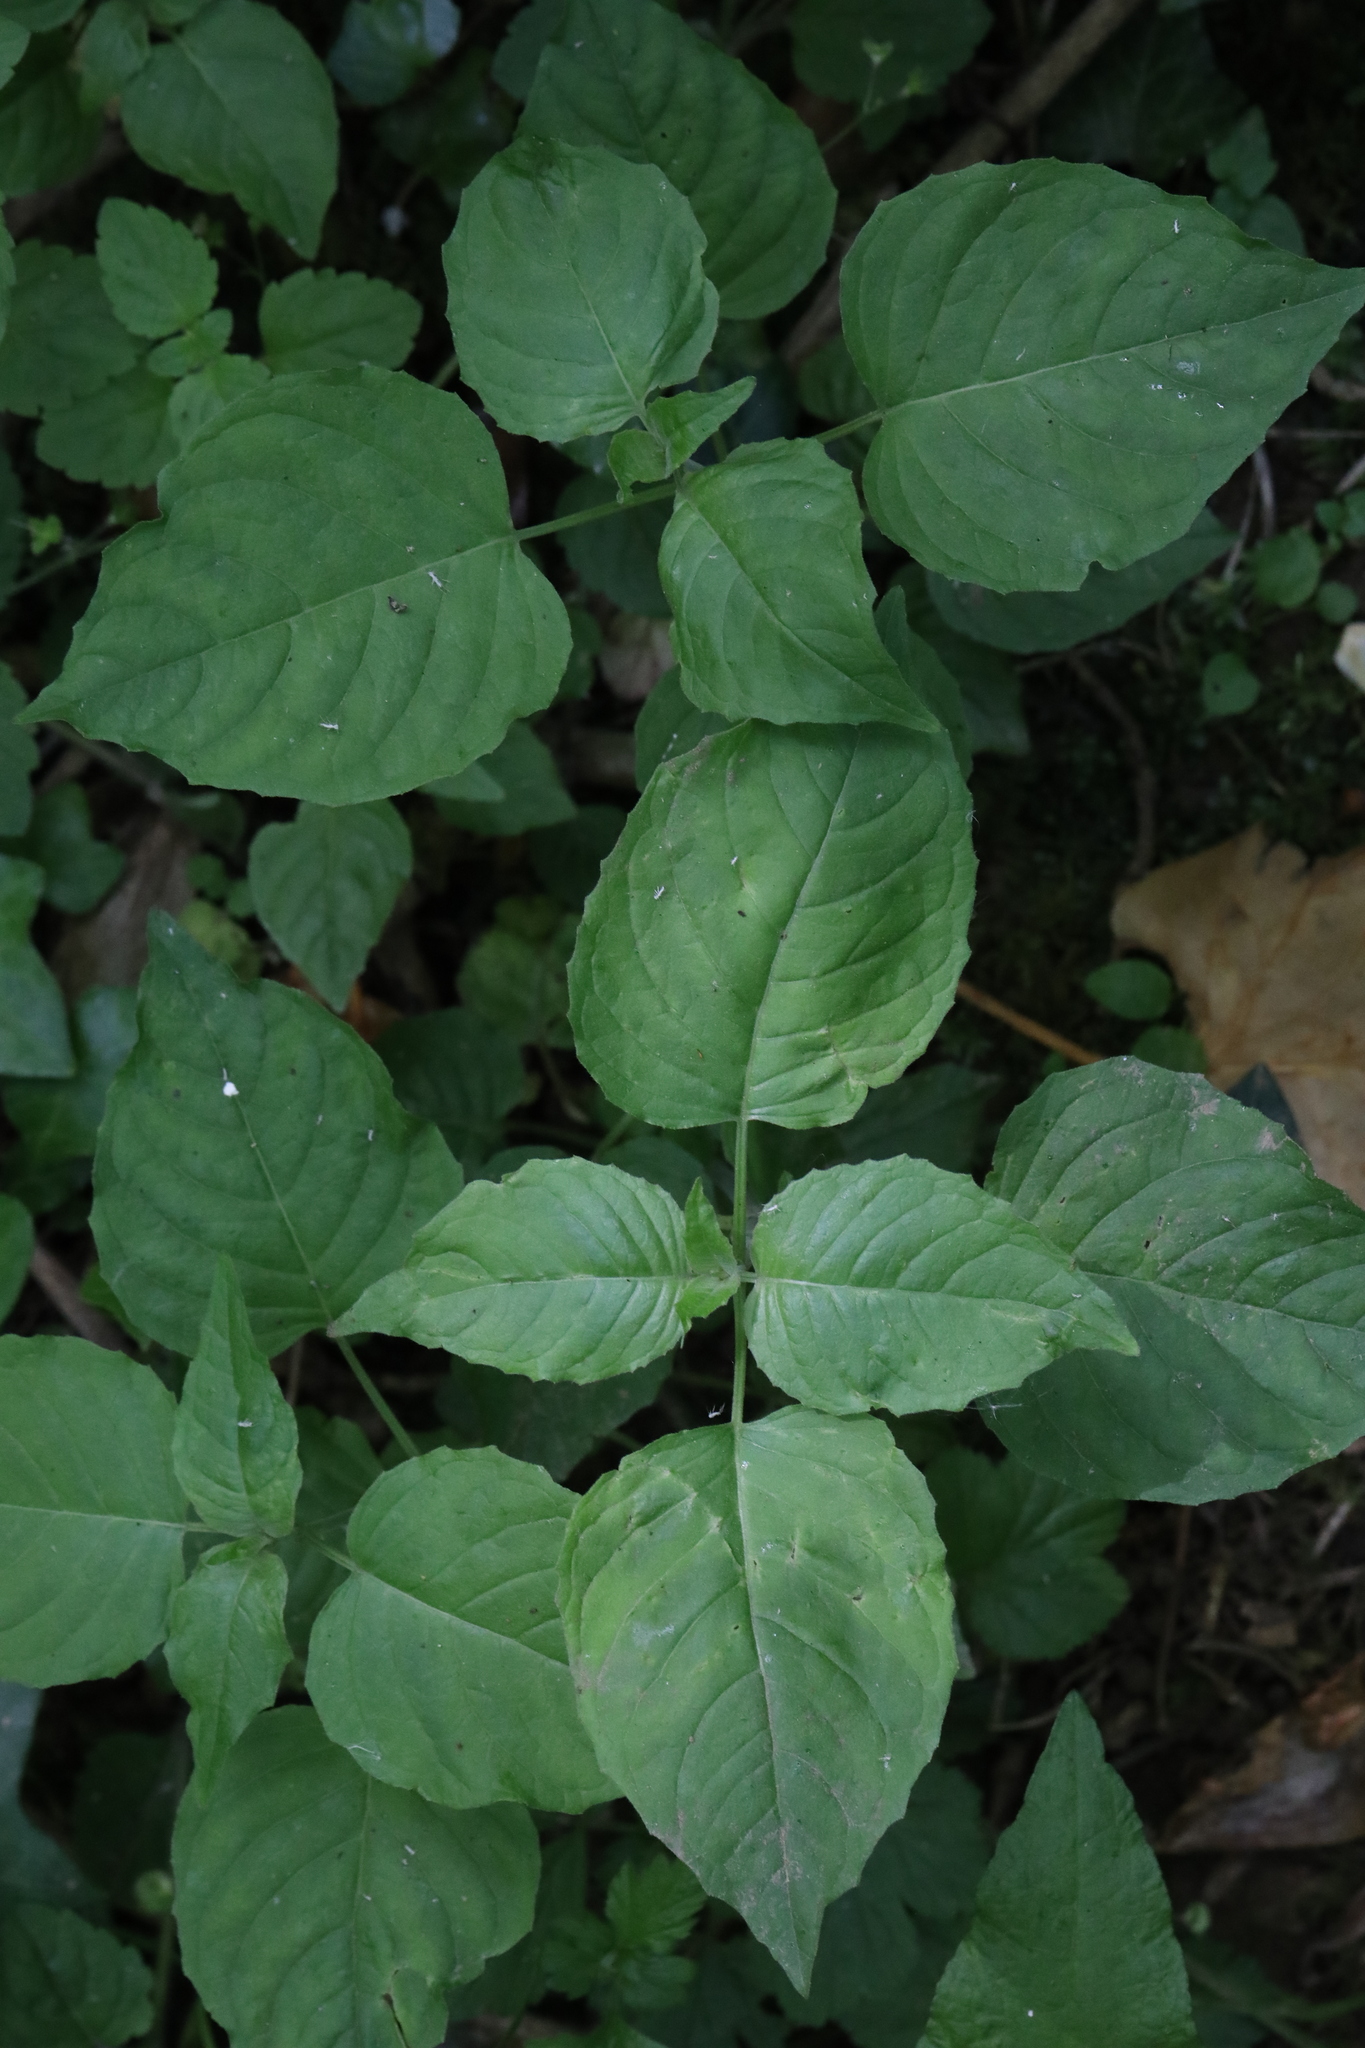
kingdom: Plantae
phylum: Tracheophyta
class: Magnoliopsida
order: Myrtales
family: Onagraceae
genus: Circaea
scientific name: Circaea lutetiana
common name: Enchanter's-nightshade
